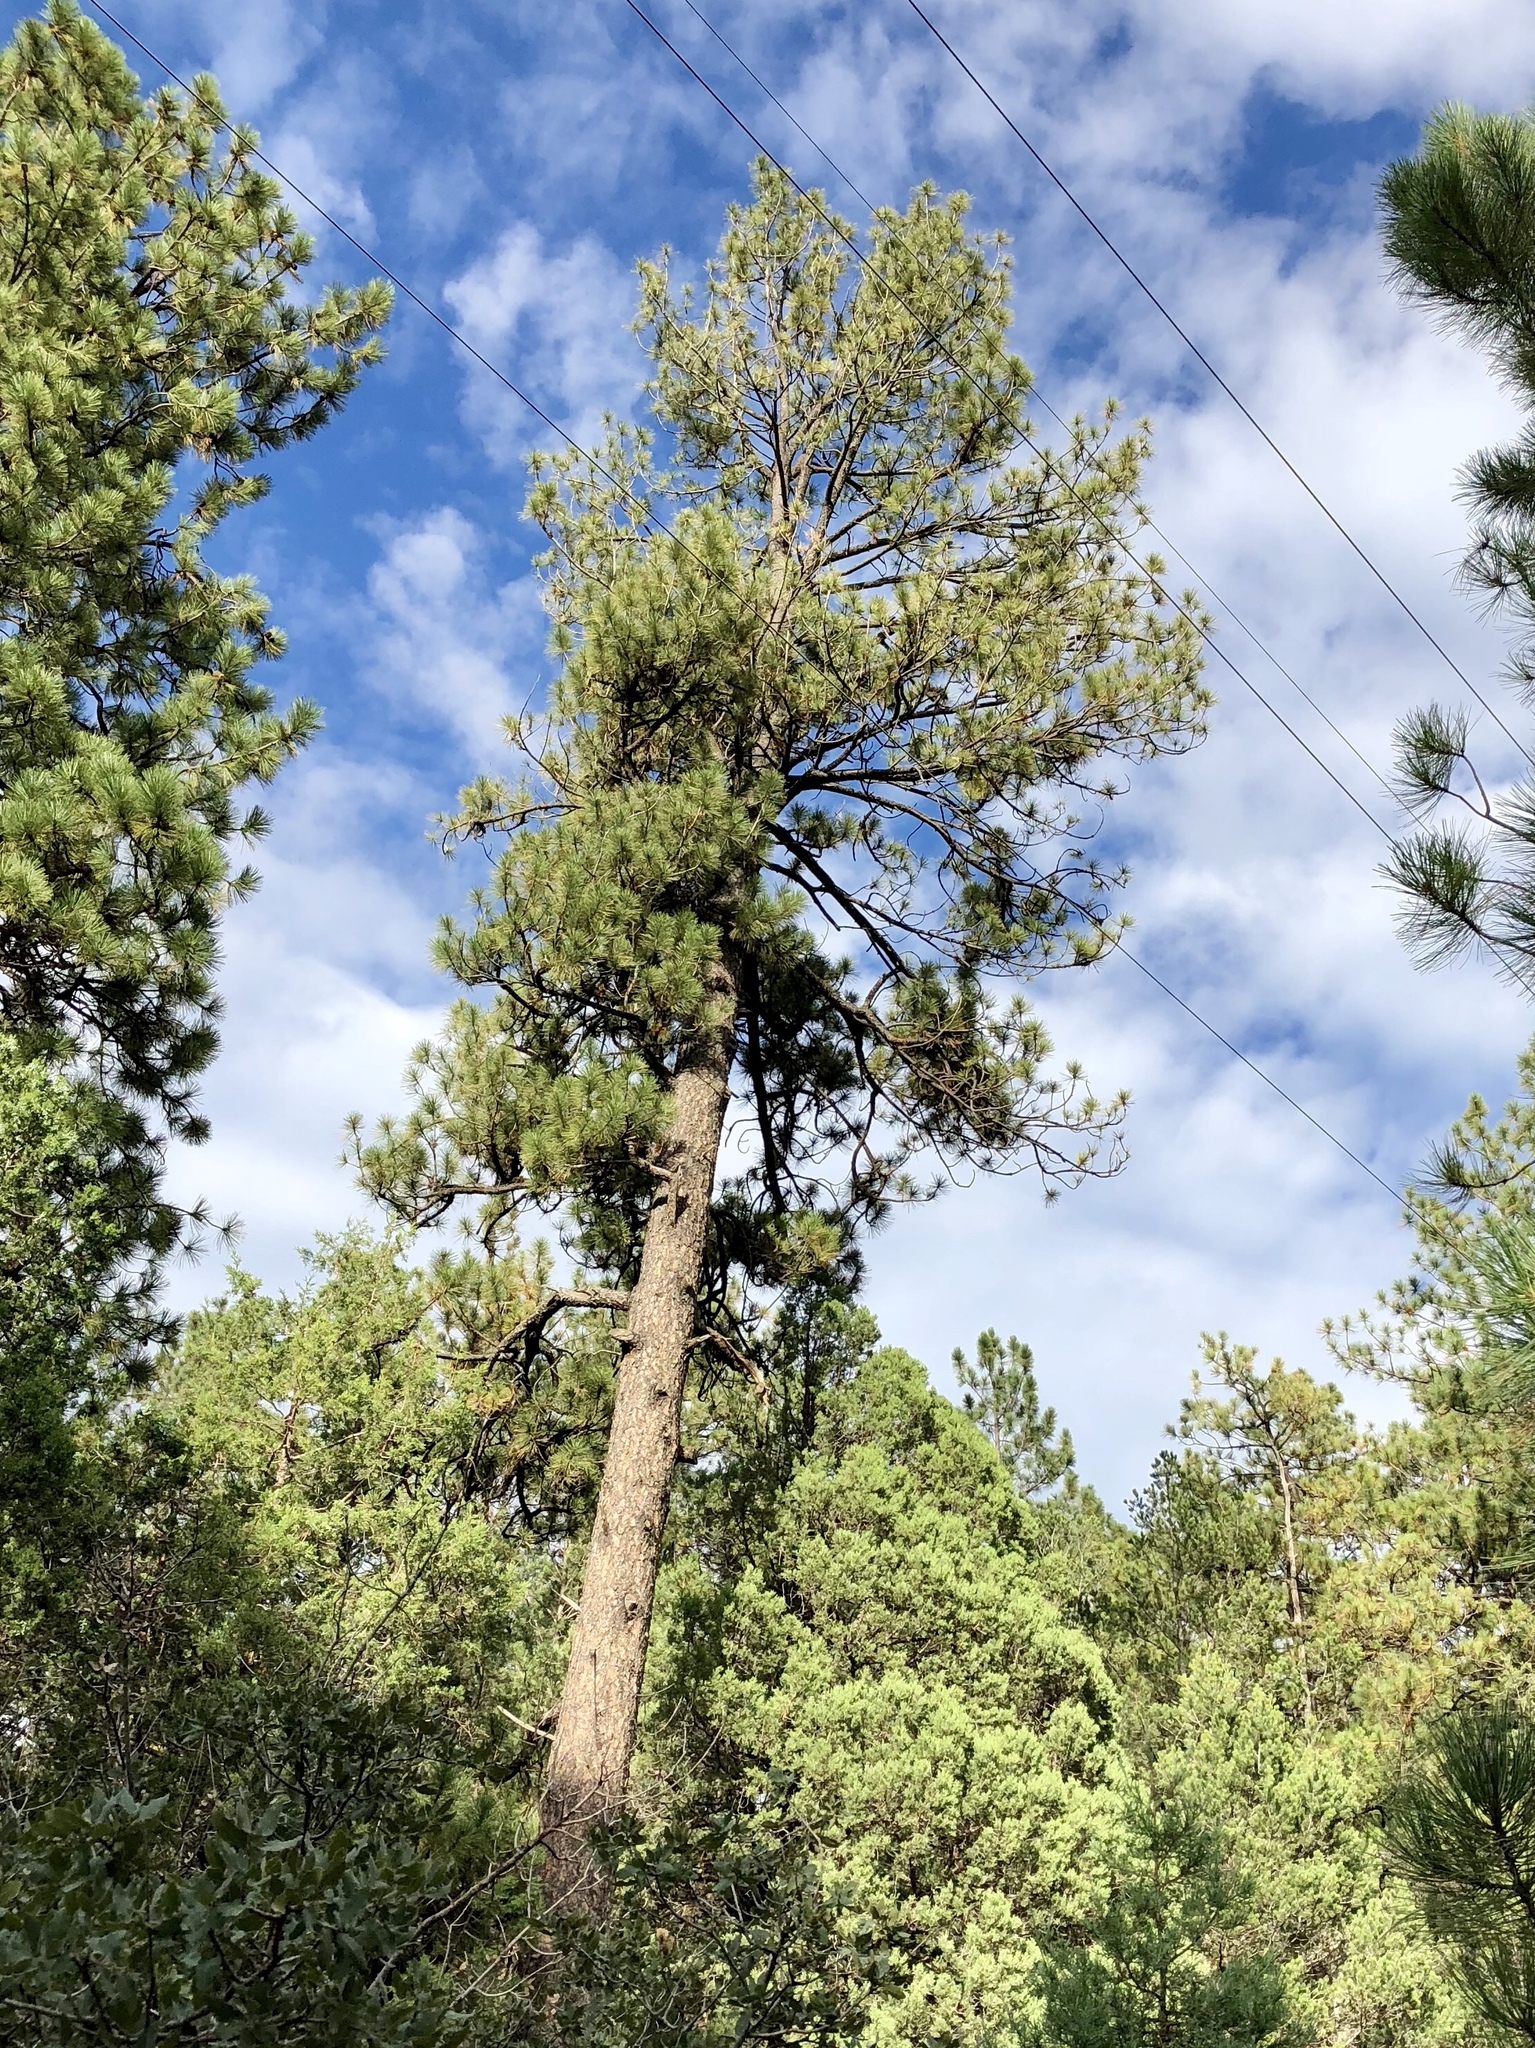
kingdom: Plantae
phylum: Tracheophyta
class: Pinopsida
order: Pinales
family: Pinaceae
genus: Pinus
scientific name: Pinus ponderosa
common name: Western yellow-pine
